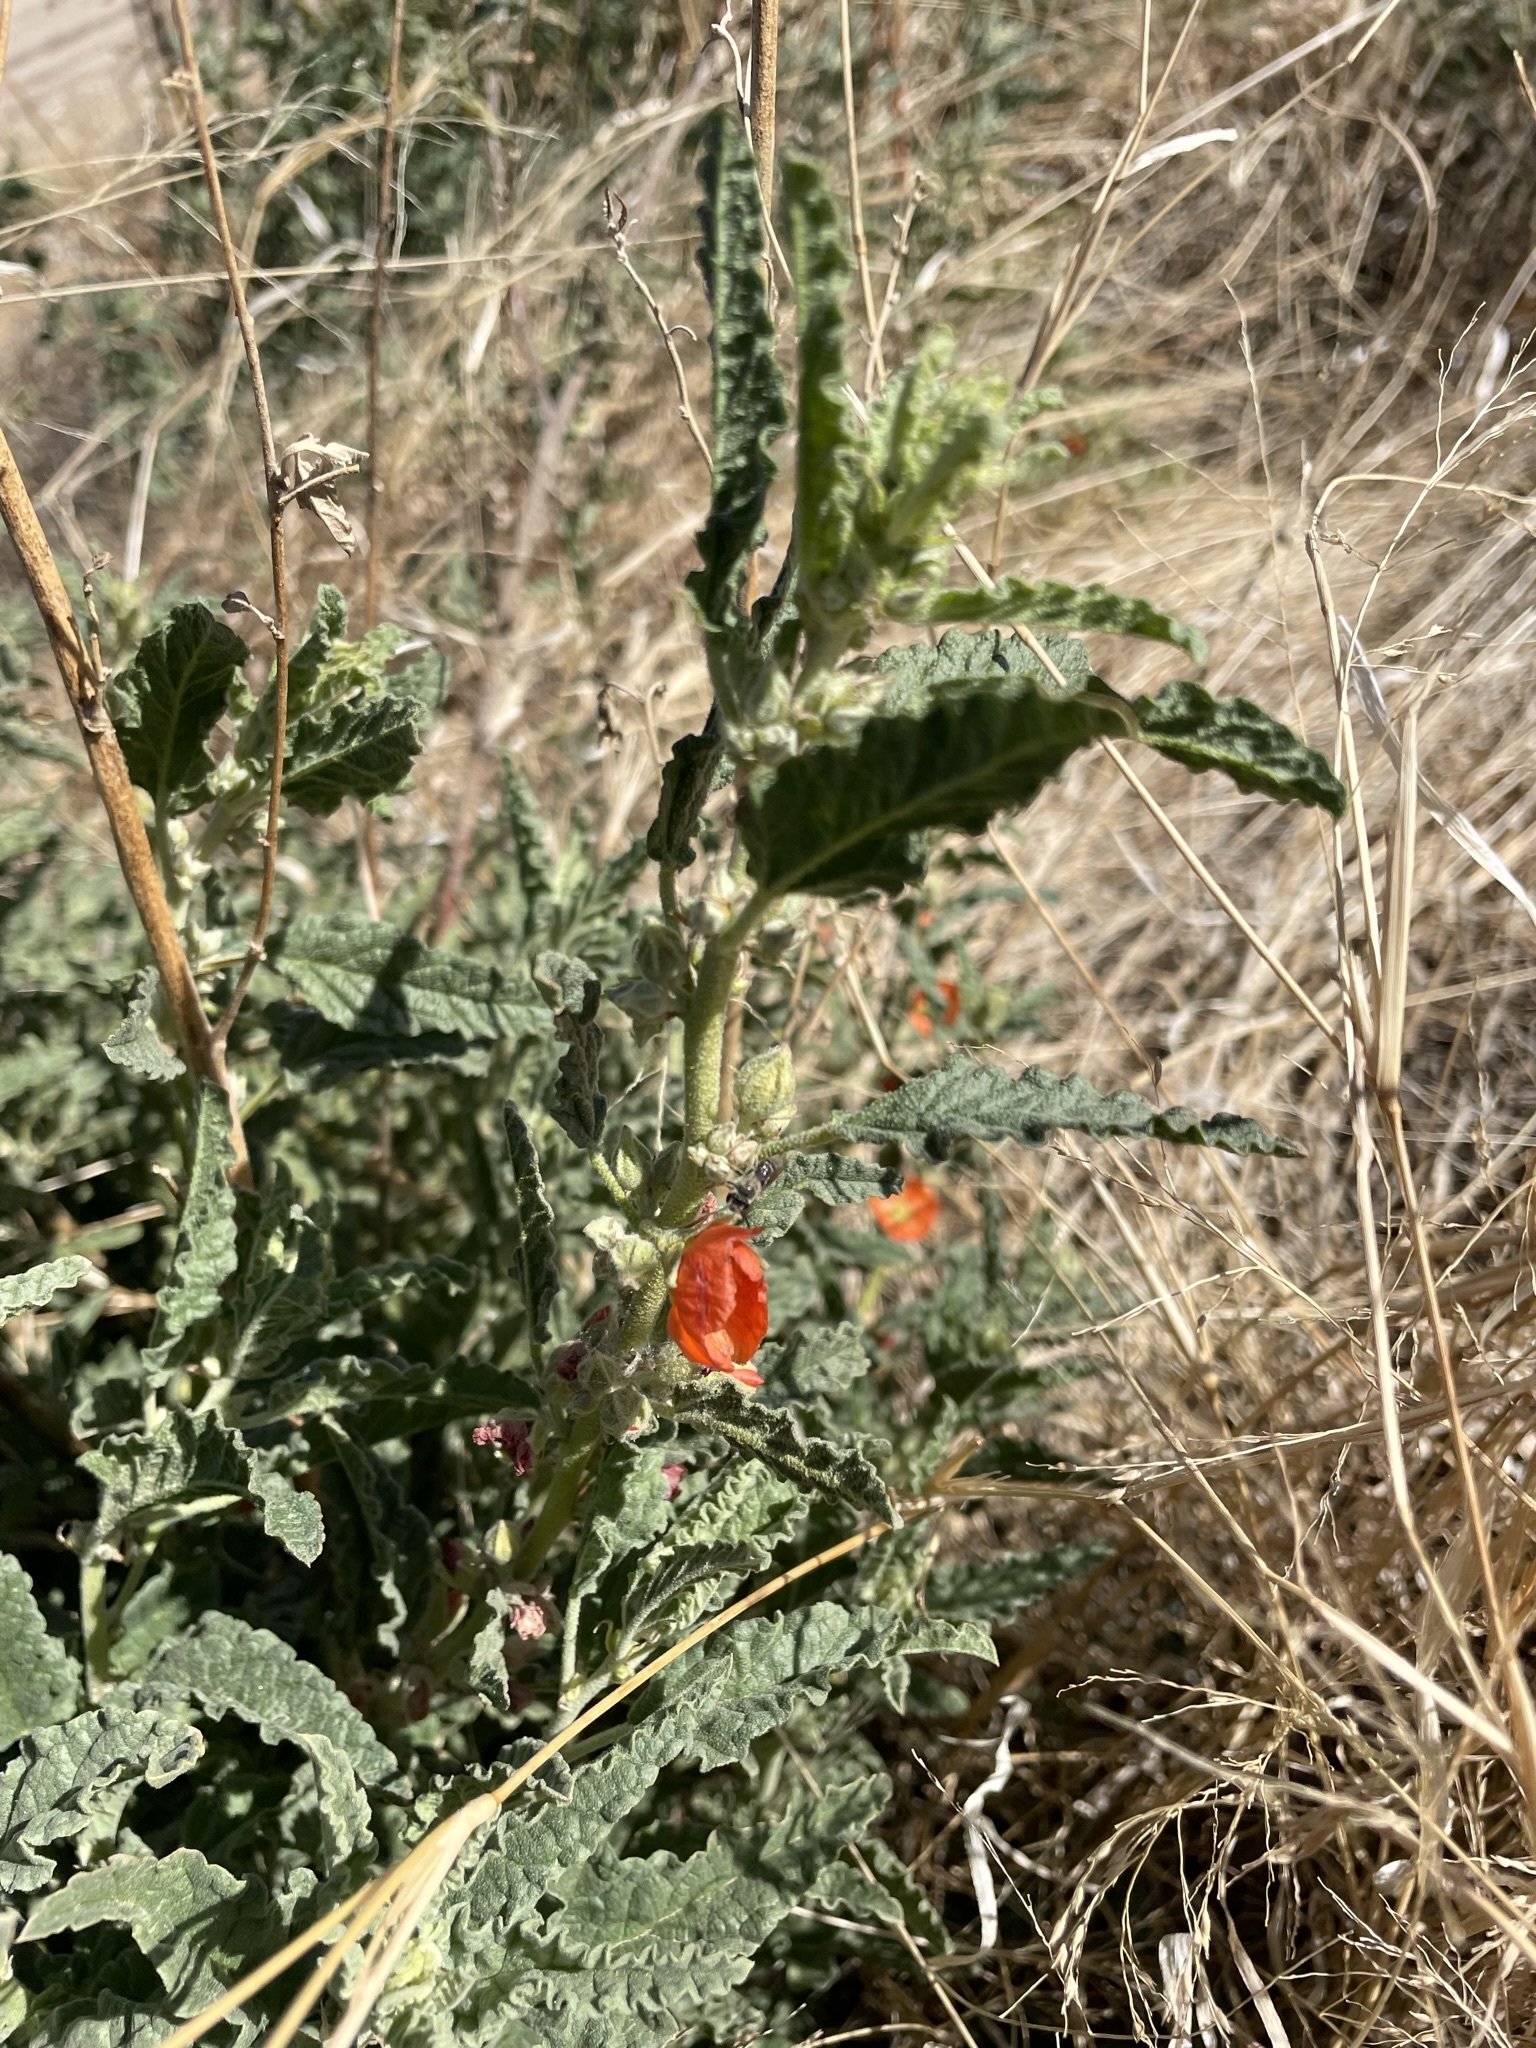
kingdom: Plantae
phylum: Tracheophyta
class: Magnoliopsida
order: Malvales
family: Malvaceae
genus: Sphaeralcea
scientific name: Sphaeralcea angustifolia
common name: Copper globe-mallow
